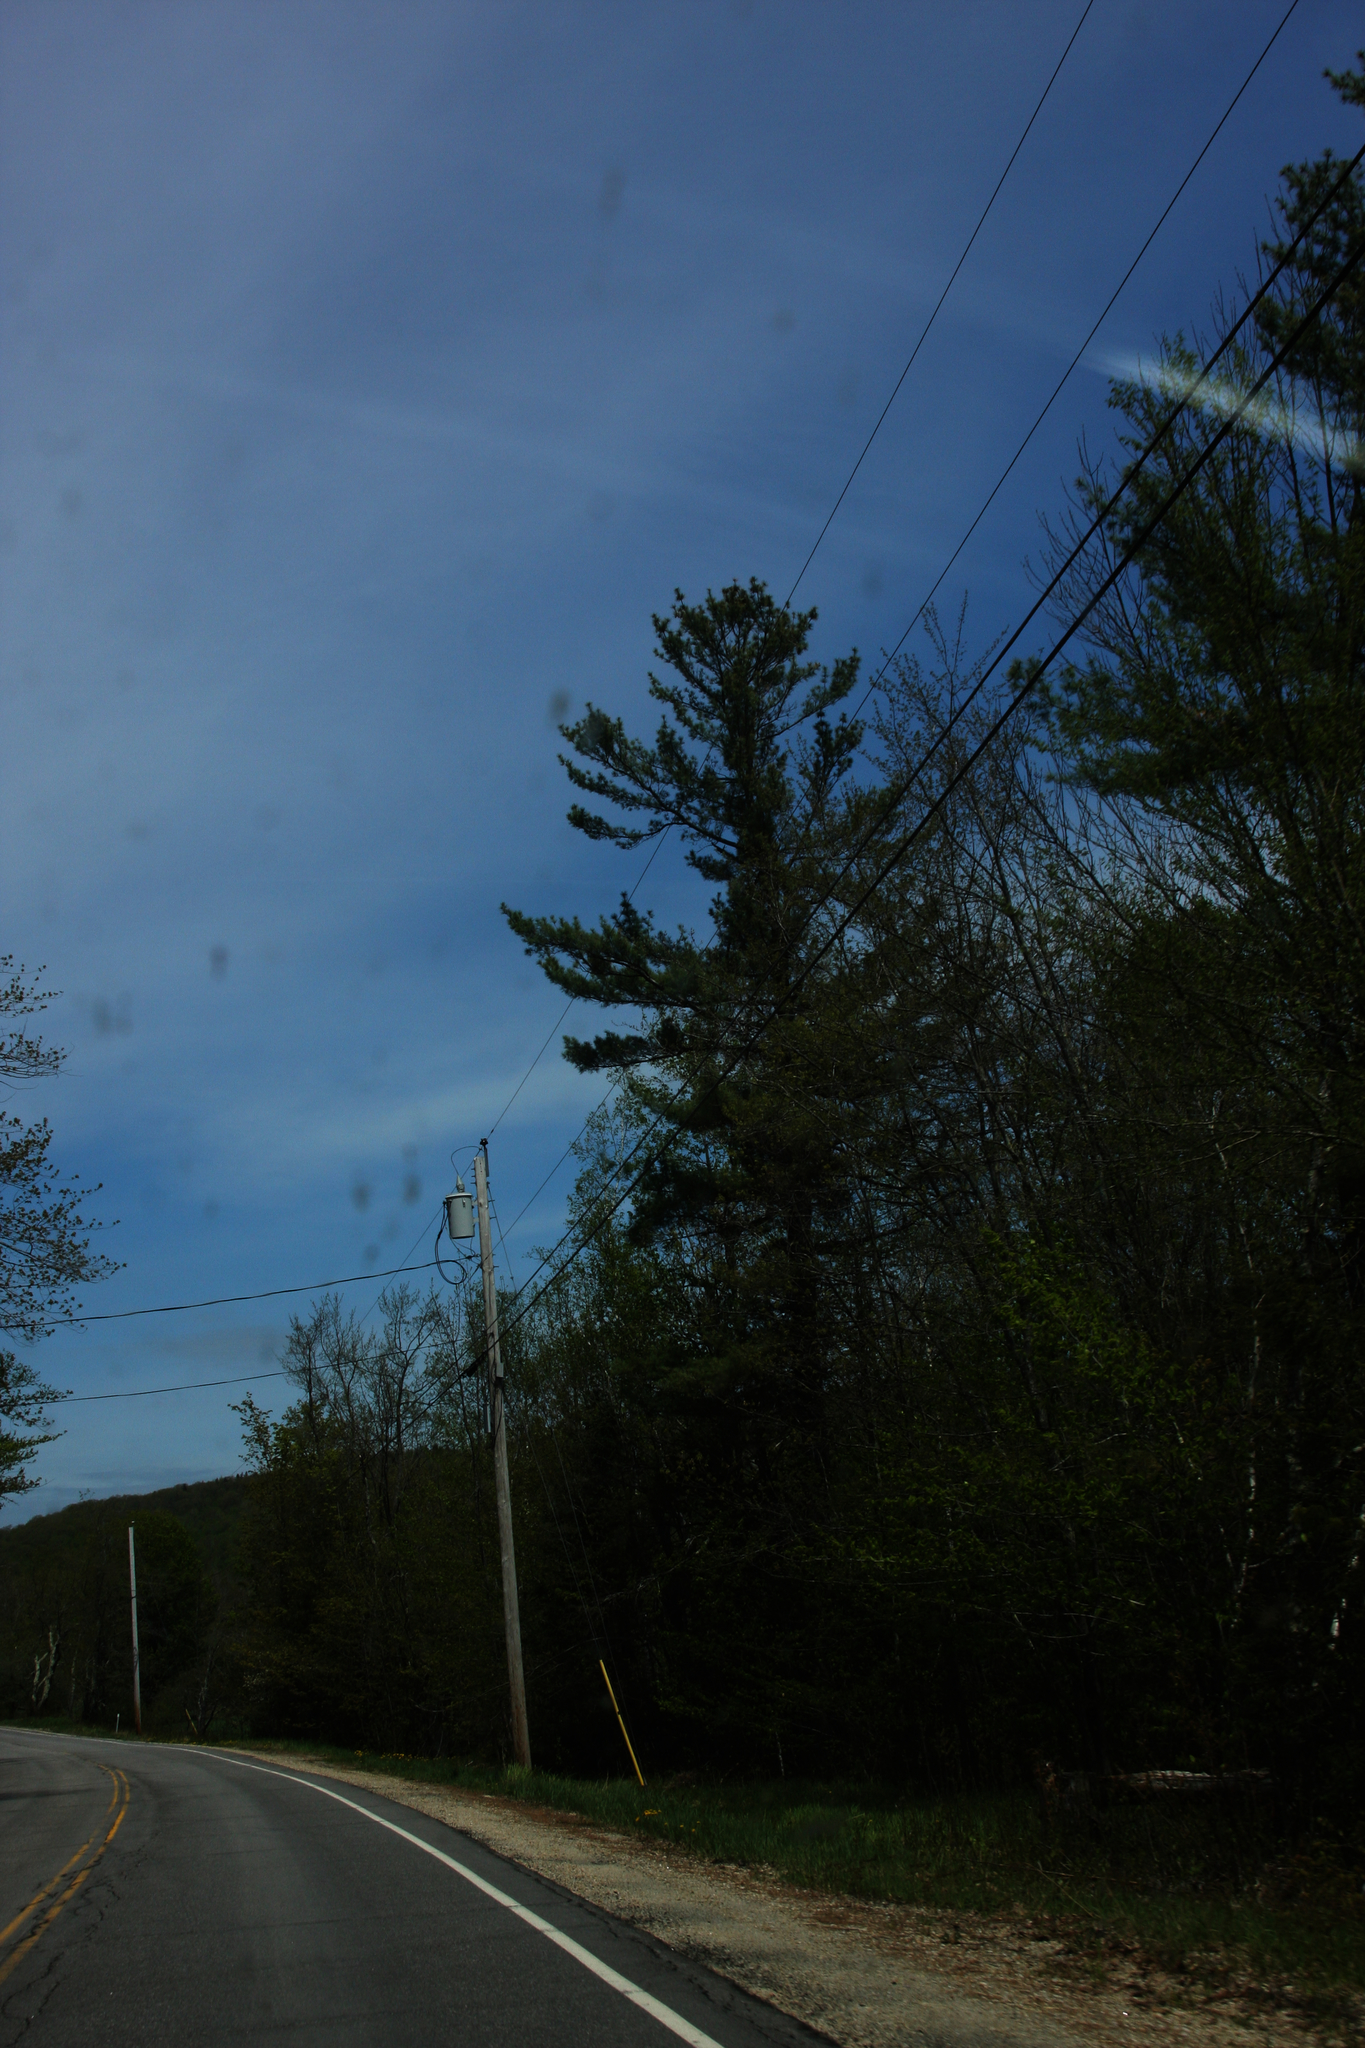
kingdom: Plantae
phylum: Tracheophyta
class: Pinopsida
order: Pinales
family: Pinaceae
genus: Pinus
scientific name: Pinus strobus
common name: Weymouth pine
